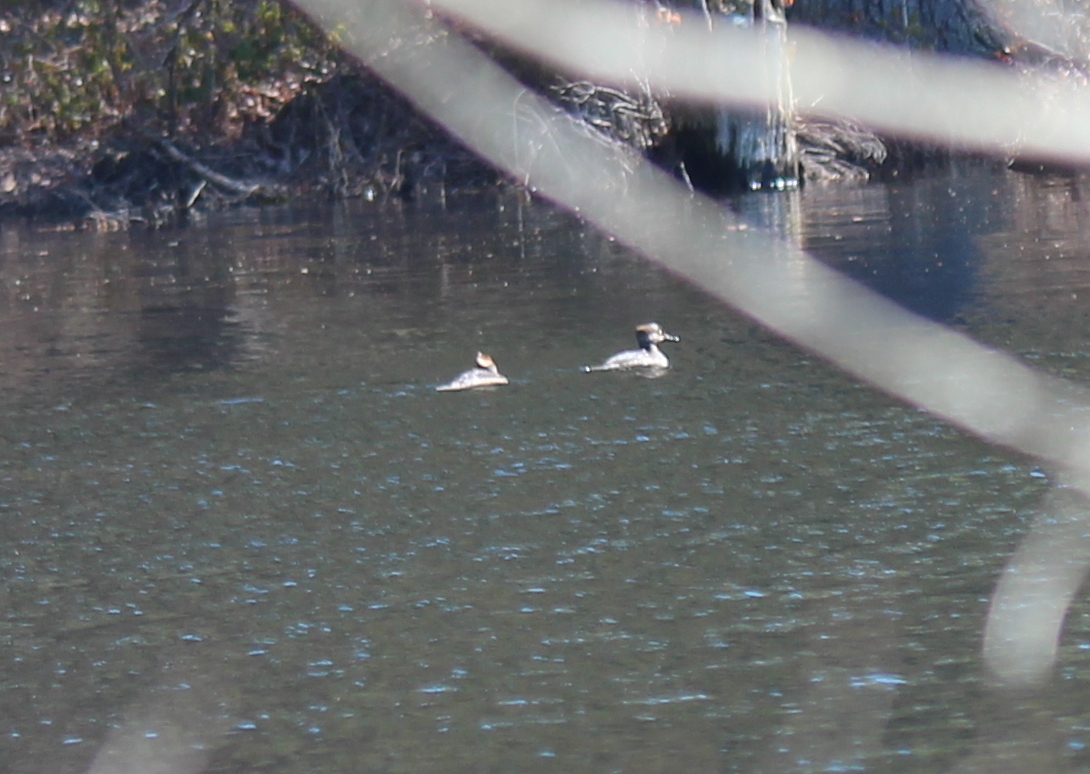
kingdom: Animalia
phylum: Chordata
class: Aves
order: Anseriformes
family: Anatidae
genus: Lophodytes
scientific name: Lophodytes cucullatus
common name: Hooded merganser
